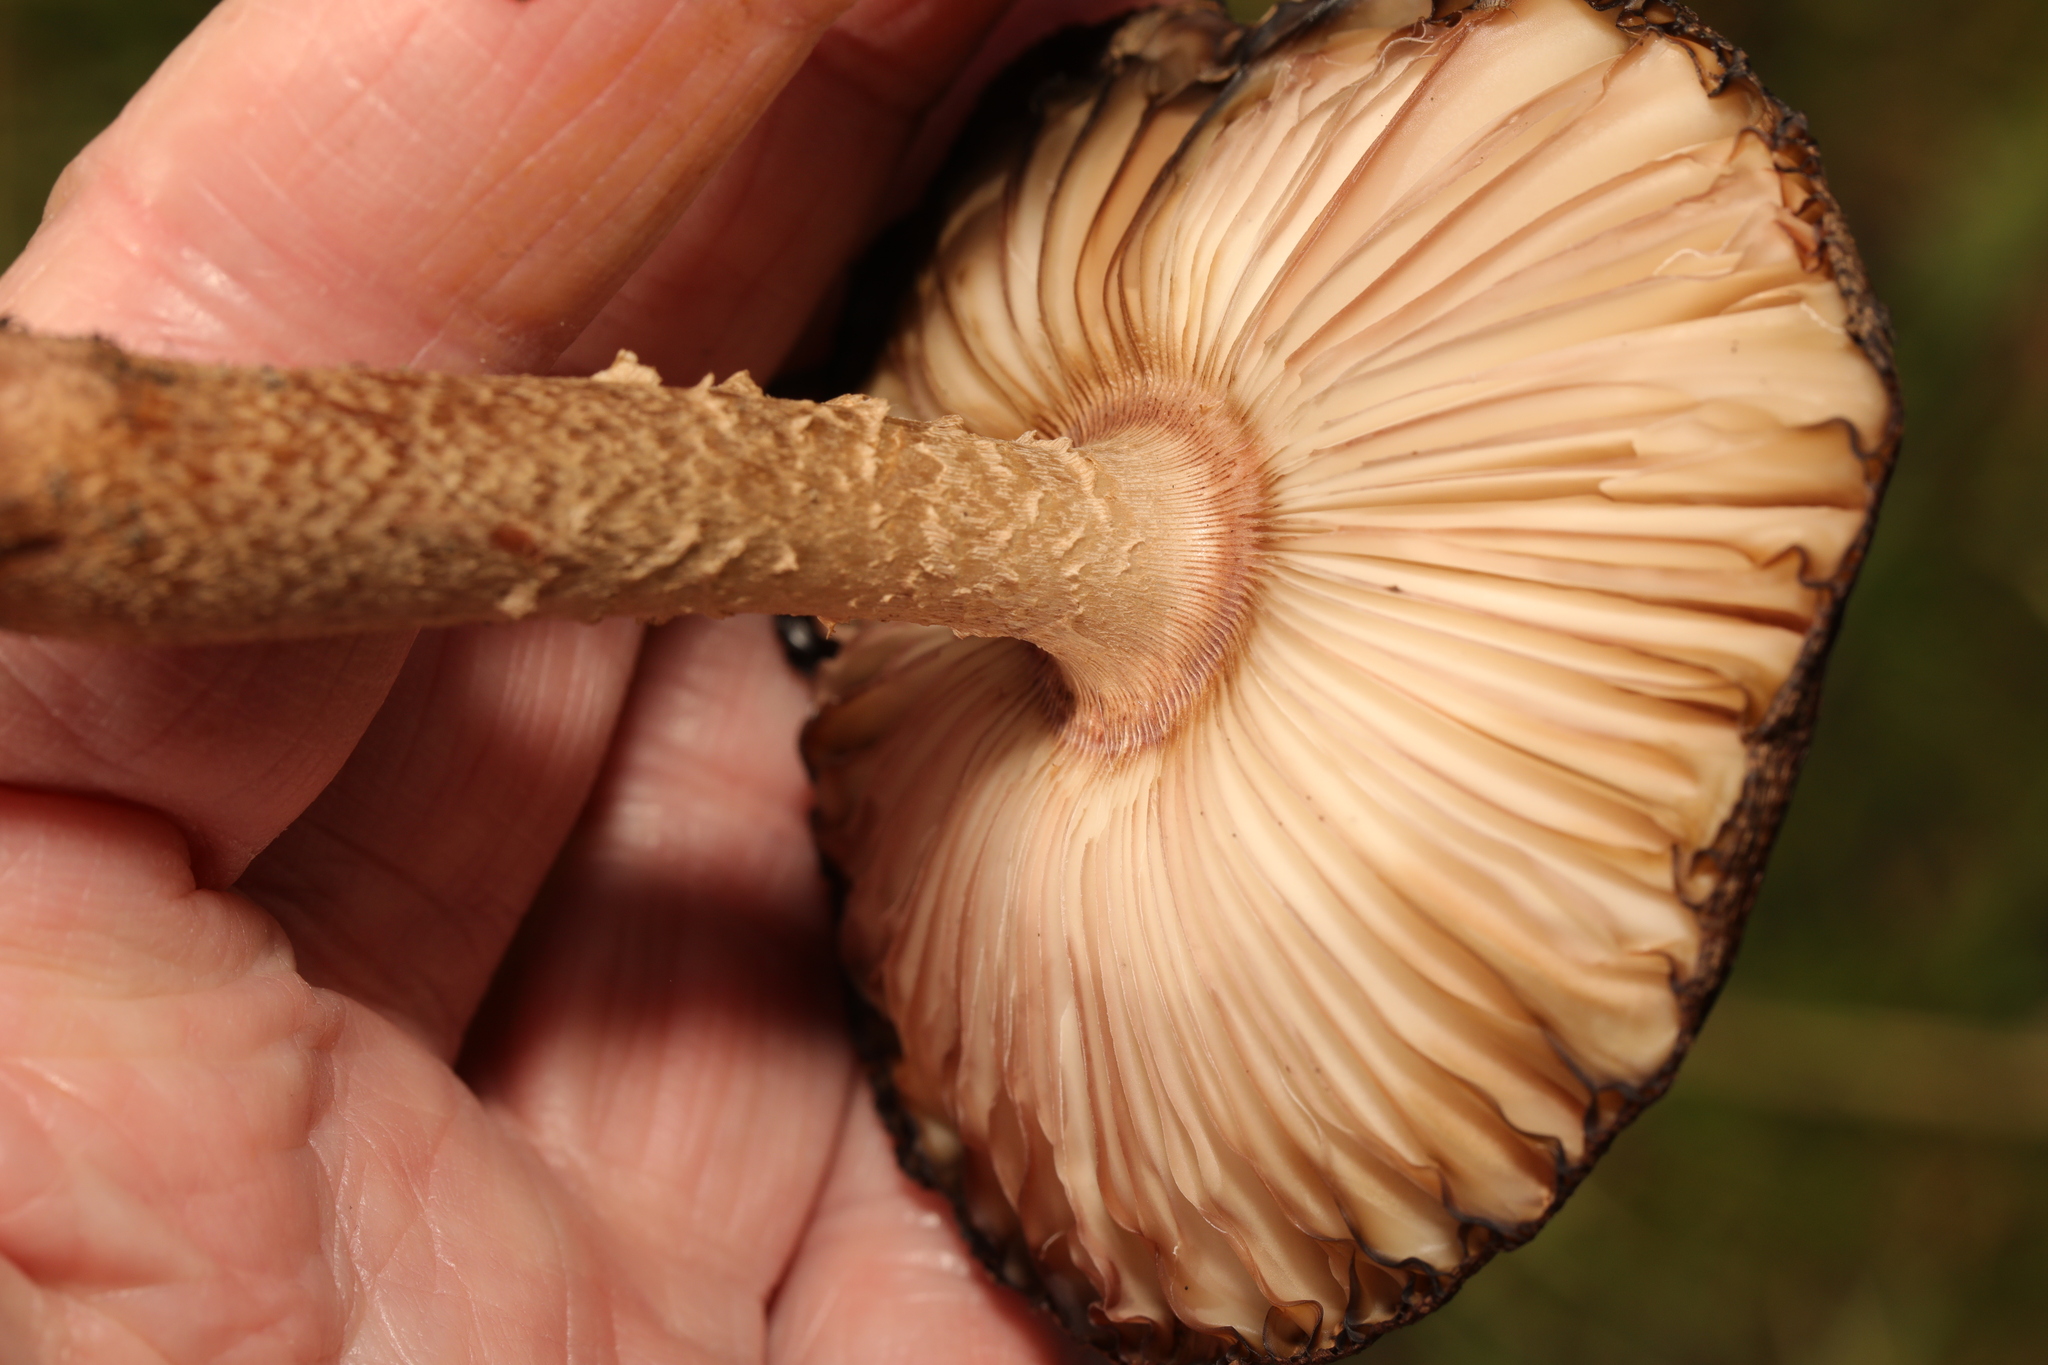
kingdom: Fungi
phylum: Basidiomycota
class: Agaricomycetes
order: Agaricales
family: Amanitaceae
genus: Amanita
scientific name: Amanita rubescens
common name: Blusher
